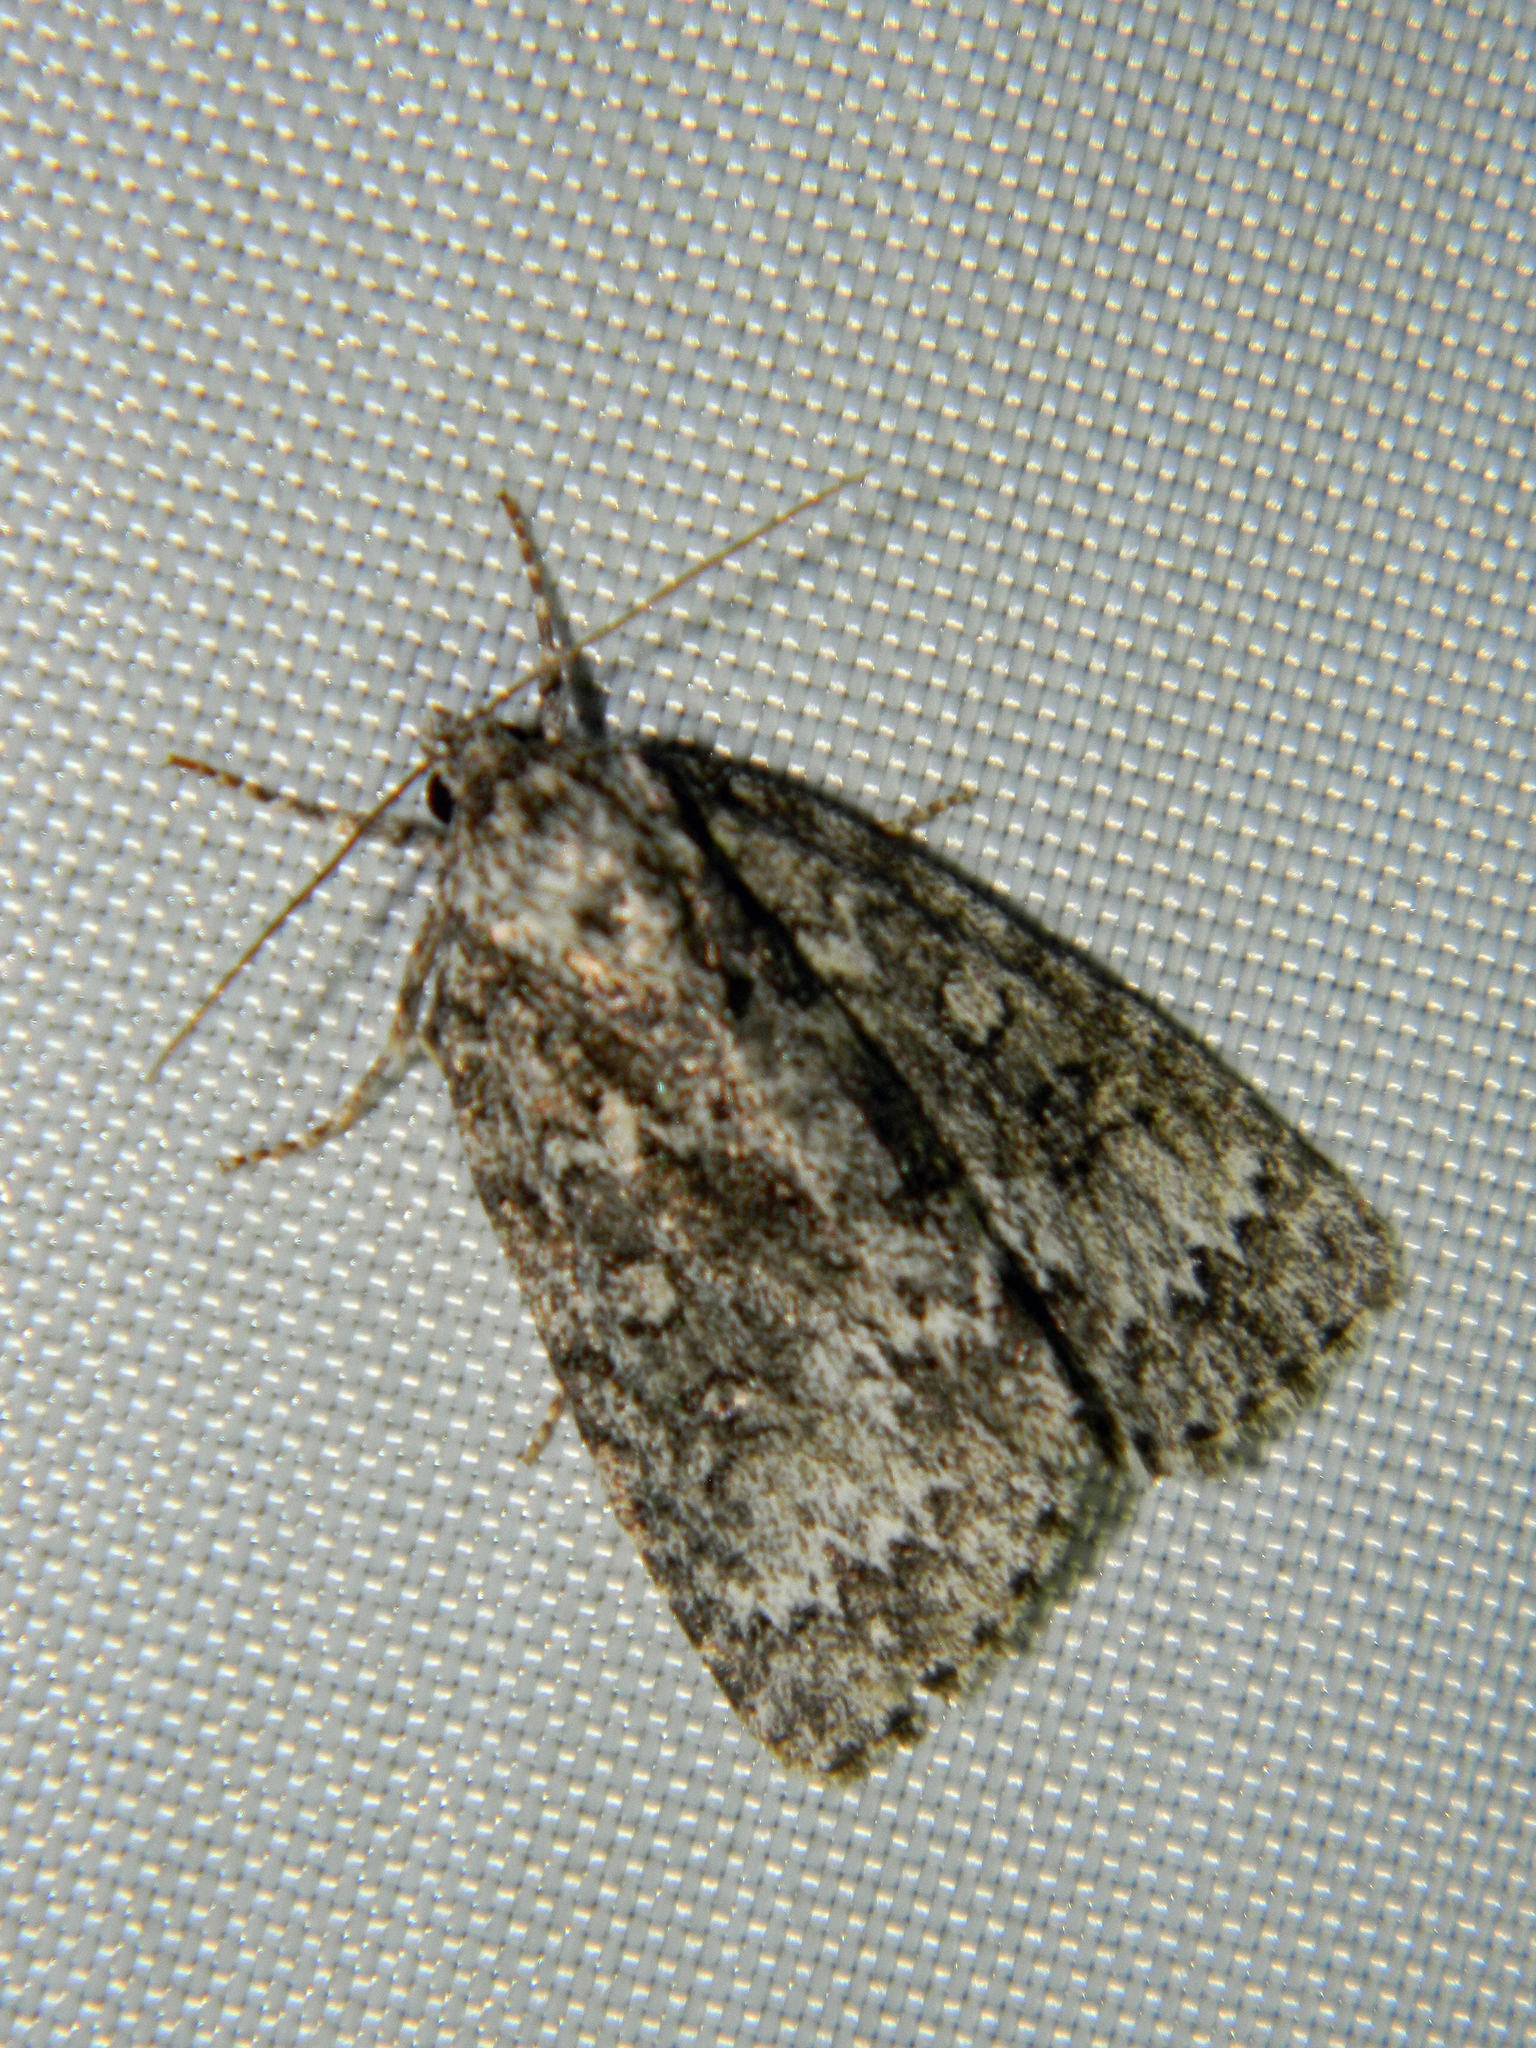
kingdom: Animalia
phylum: Arthropoda
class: Insecta
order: Lepidoptera
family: Noctuidae
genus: Acronicta
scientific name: Acronicta fragilis
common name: Fragile dagger
